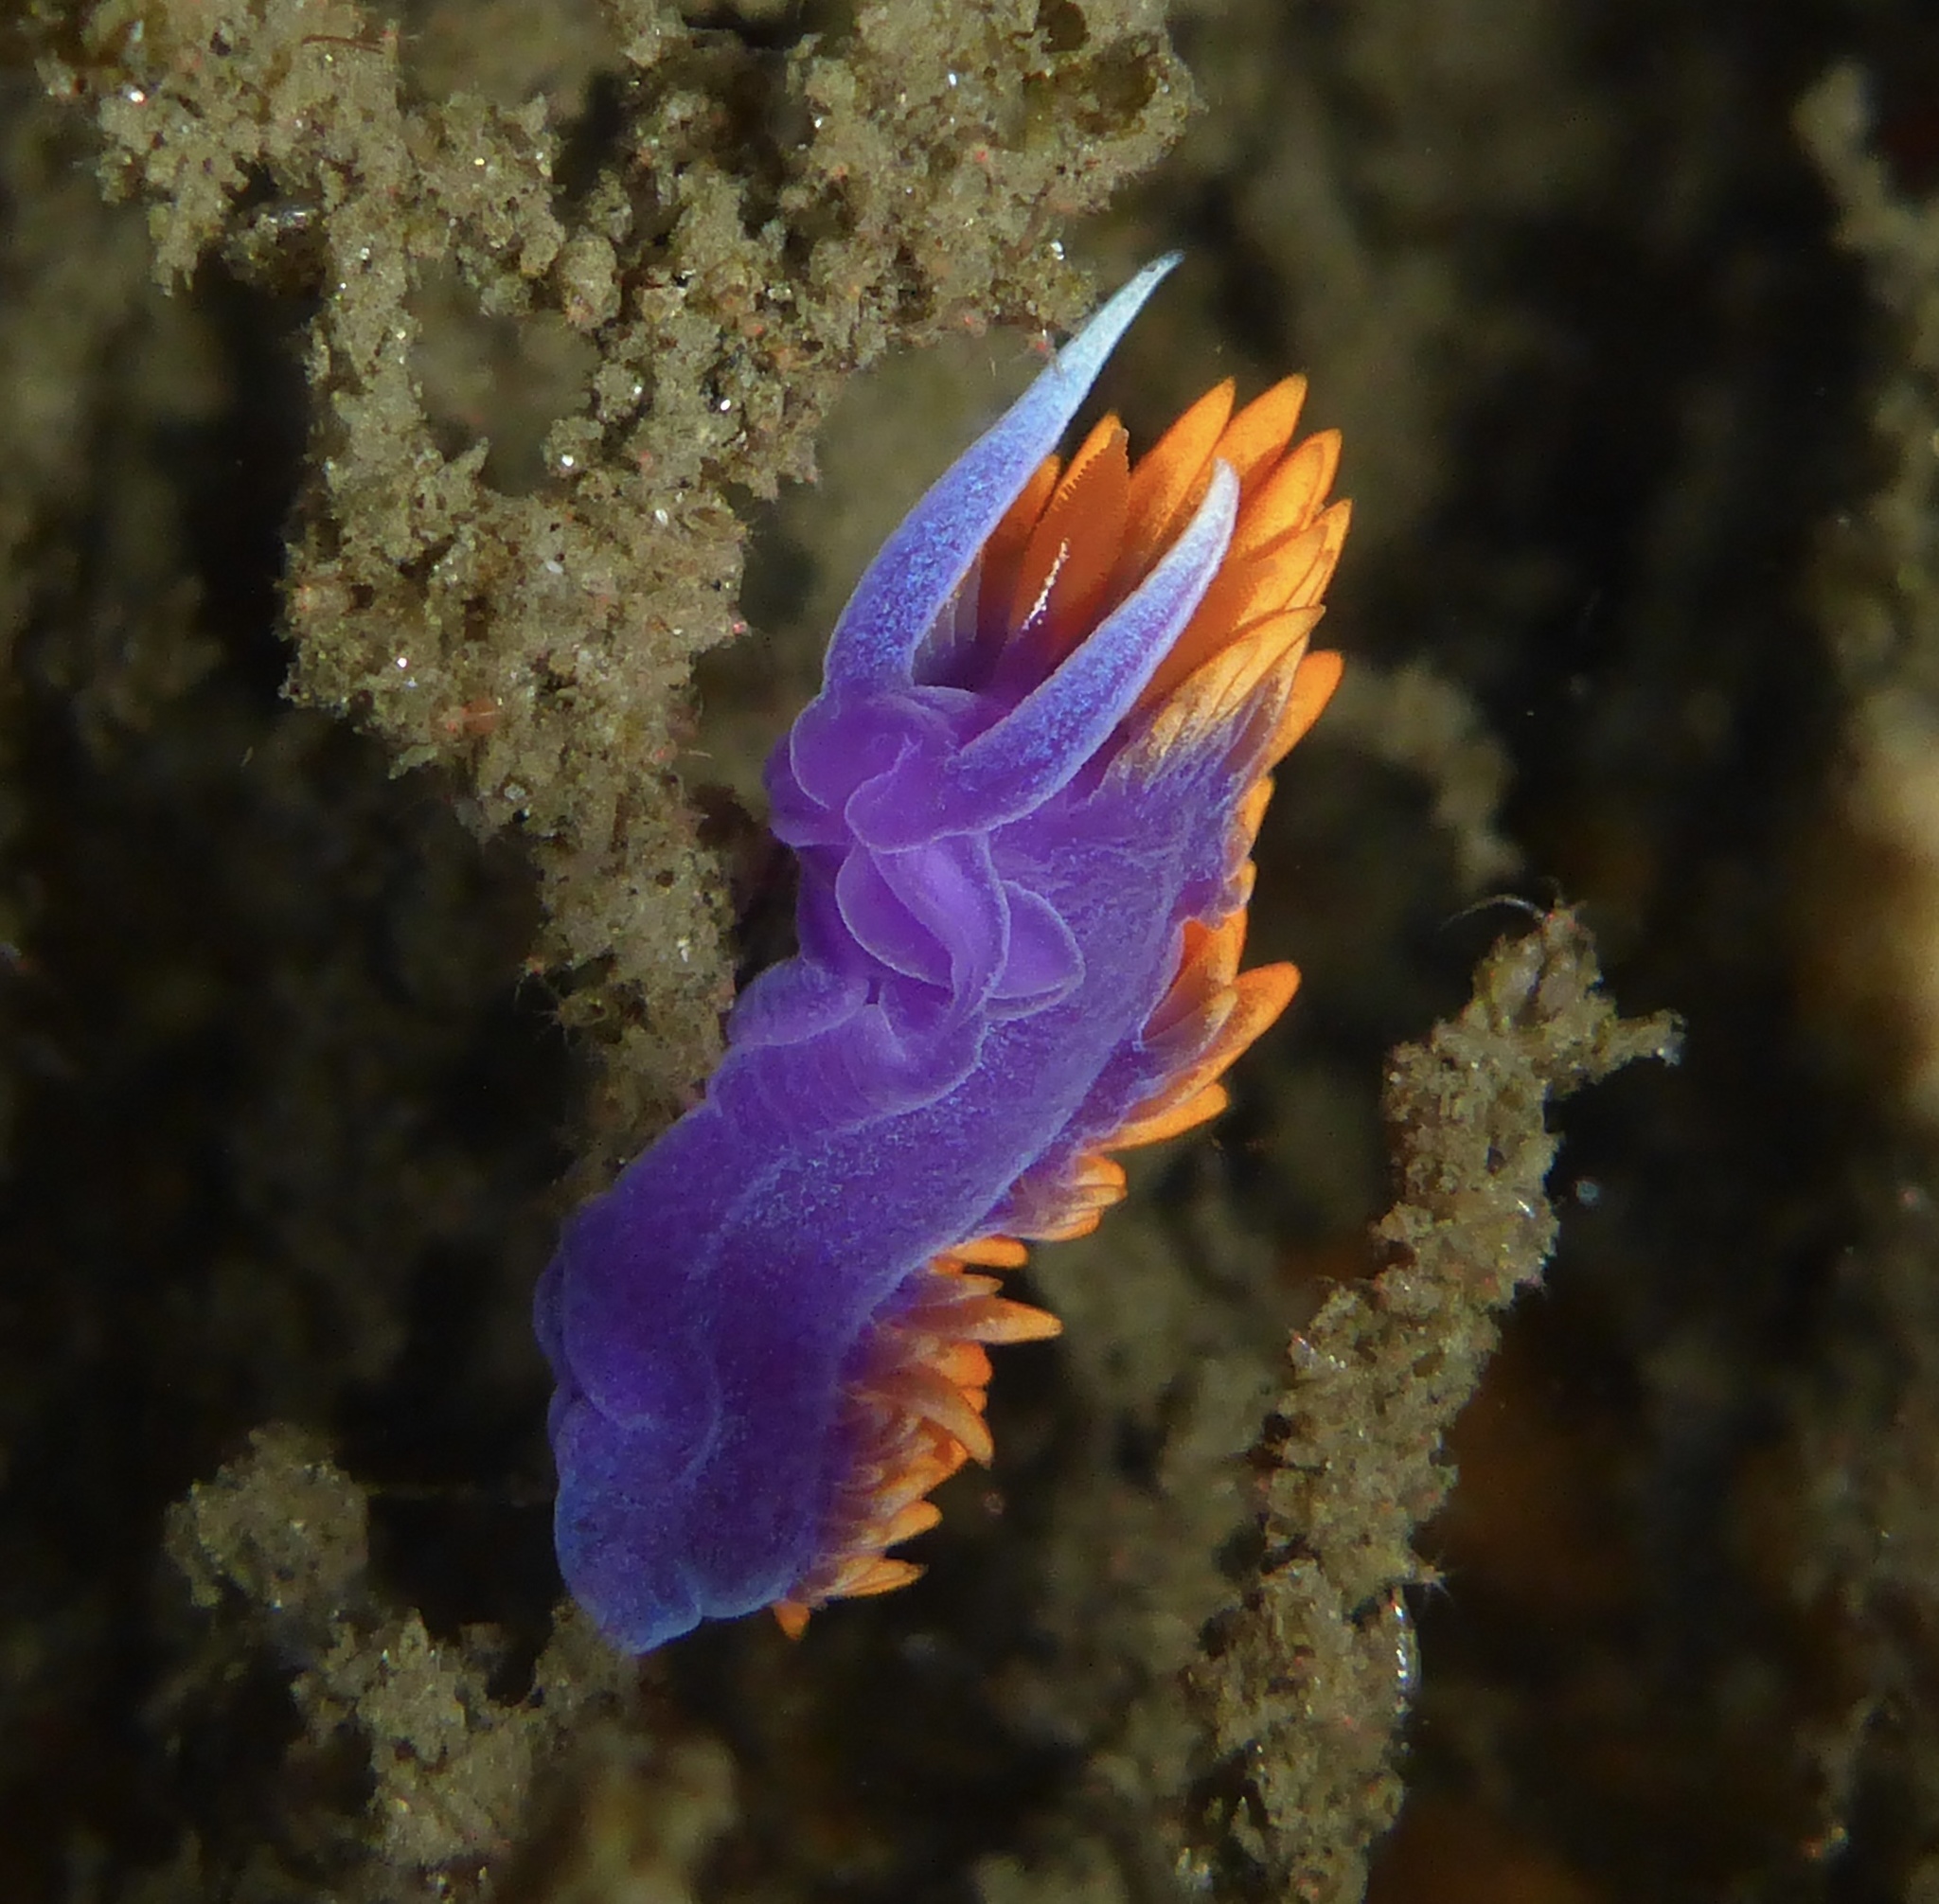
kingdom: Animalia
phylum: Mollusca
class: Gastropoda
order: Nudibranchia
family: Flabellinopsidae
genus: Flabellinopsis
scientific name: Flabellinopsis iodinea
